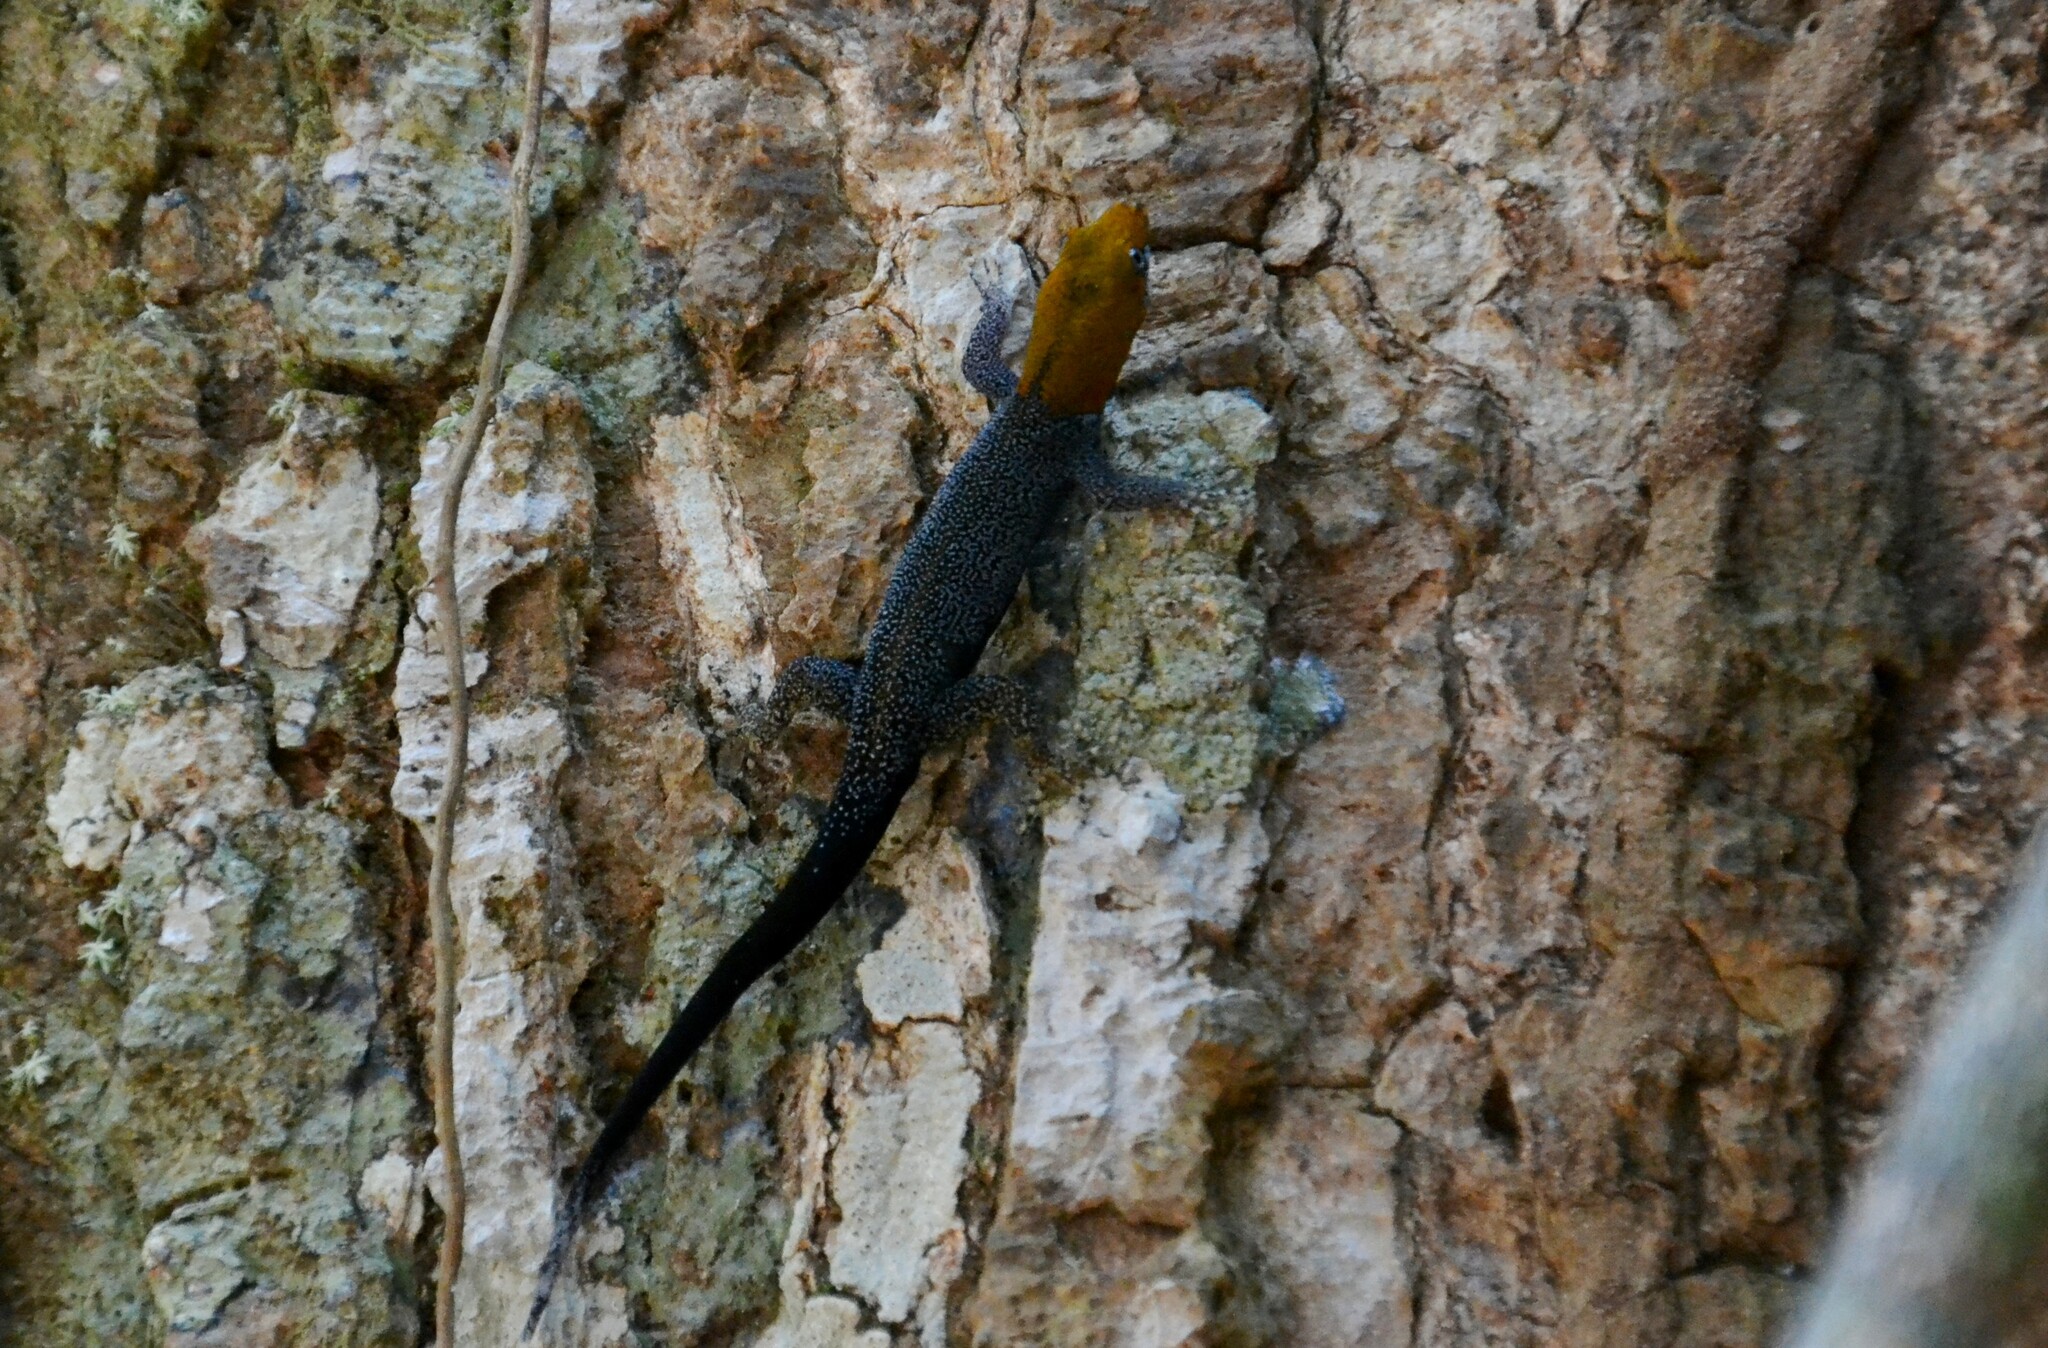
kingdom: Animalia
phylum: Chordata
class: Squamata
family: Sphaerodactylidae
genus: Gonatodes
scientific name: Gonatodes albogularis
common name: Yellow-headed gecko
